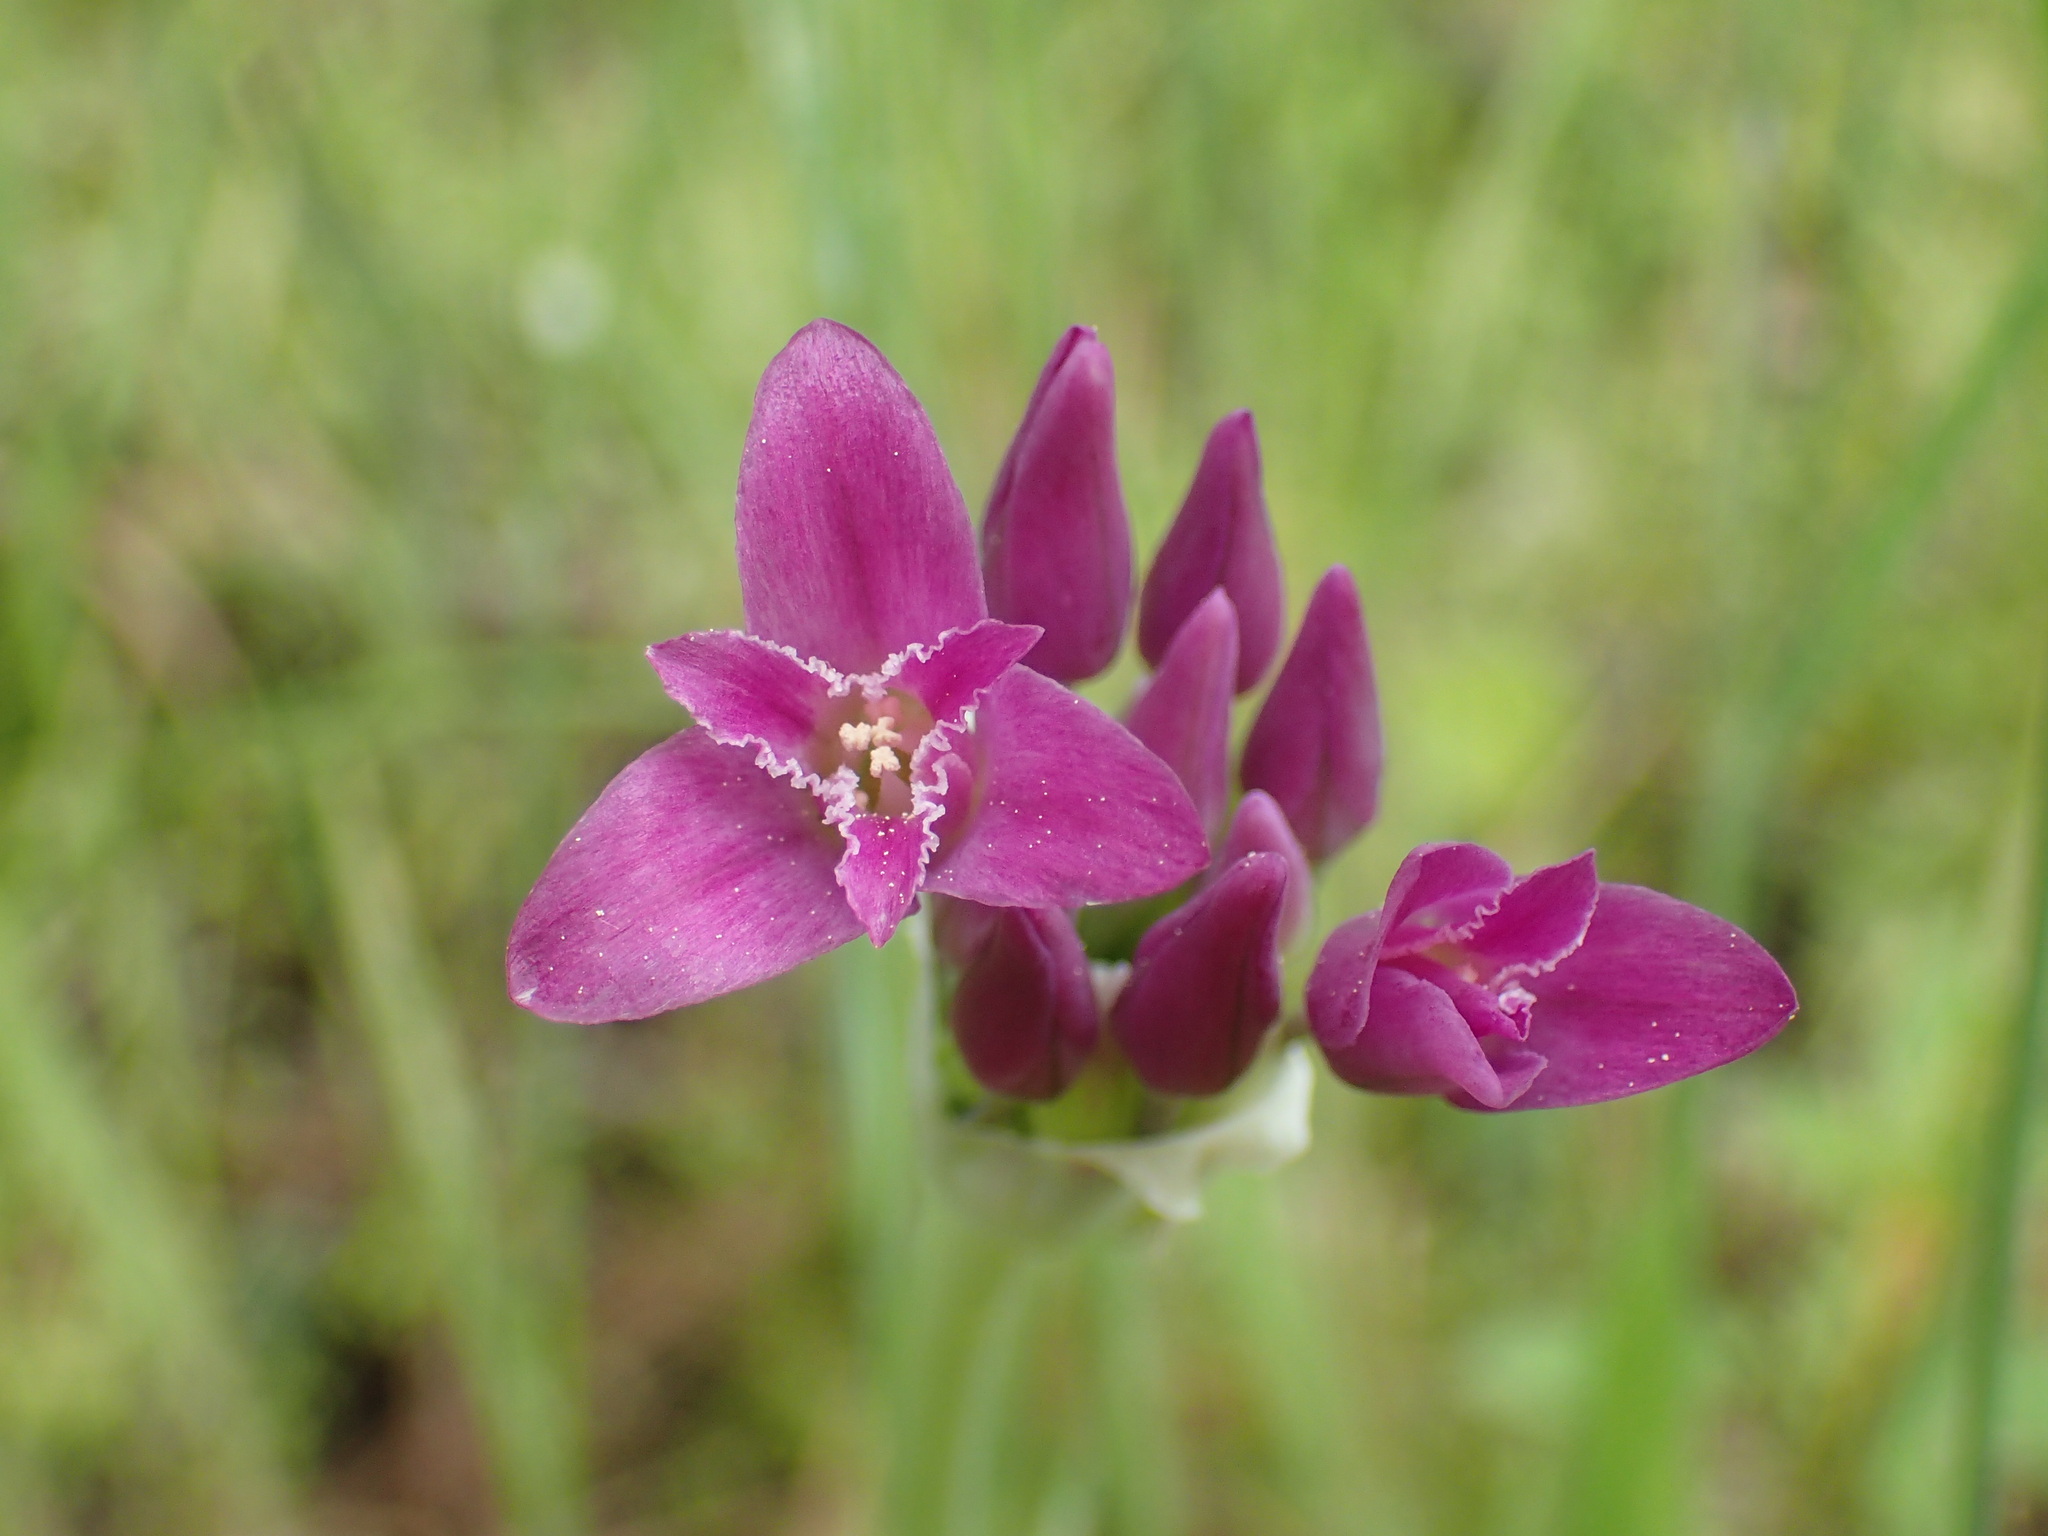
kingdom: Plantae
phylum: Tracheophyta
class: Liliopsida
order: Asparagales
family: Amaryllidaceae
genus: Allium
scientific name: Allium crispum
